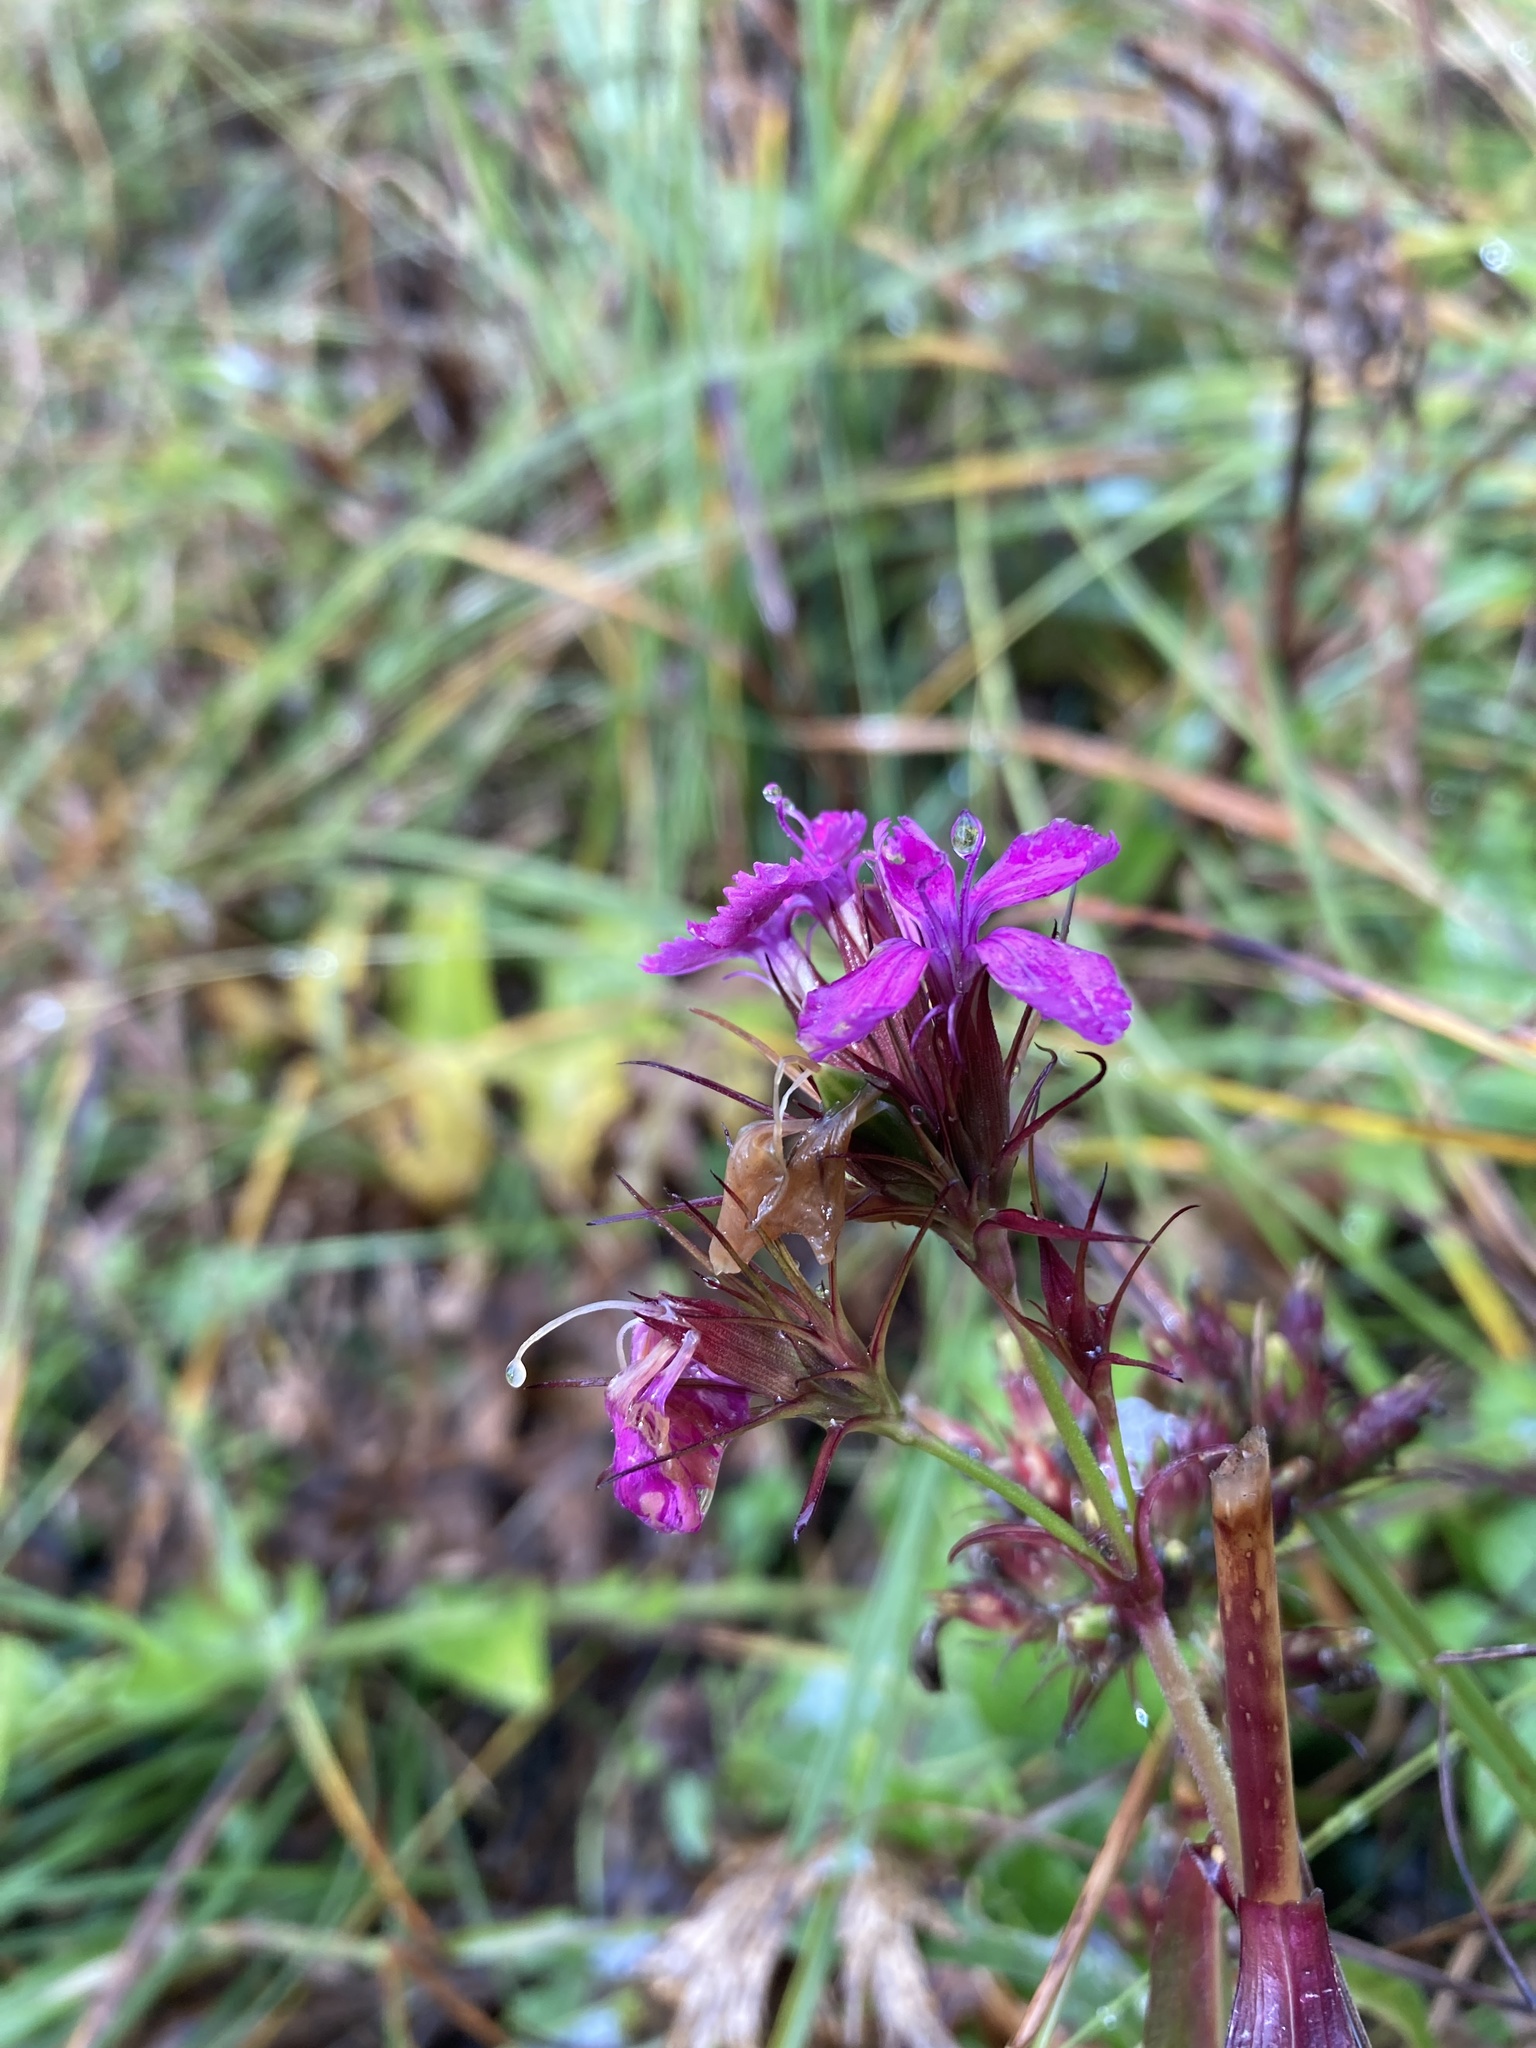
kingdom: Plantae
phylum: Tracheophyta
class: Magnoliopsida
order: Caryophyllales
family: Caryophyllaceae
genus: Dianthus
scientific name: Dianthus carthusianorum
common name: Carthusian pink
